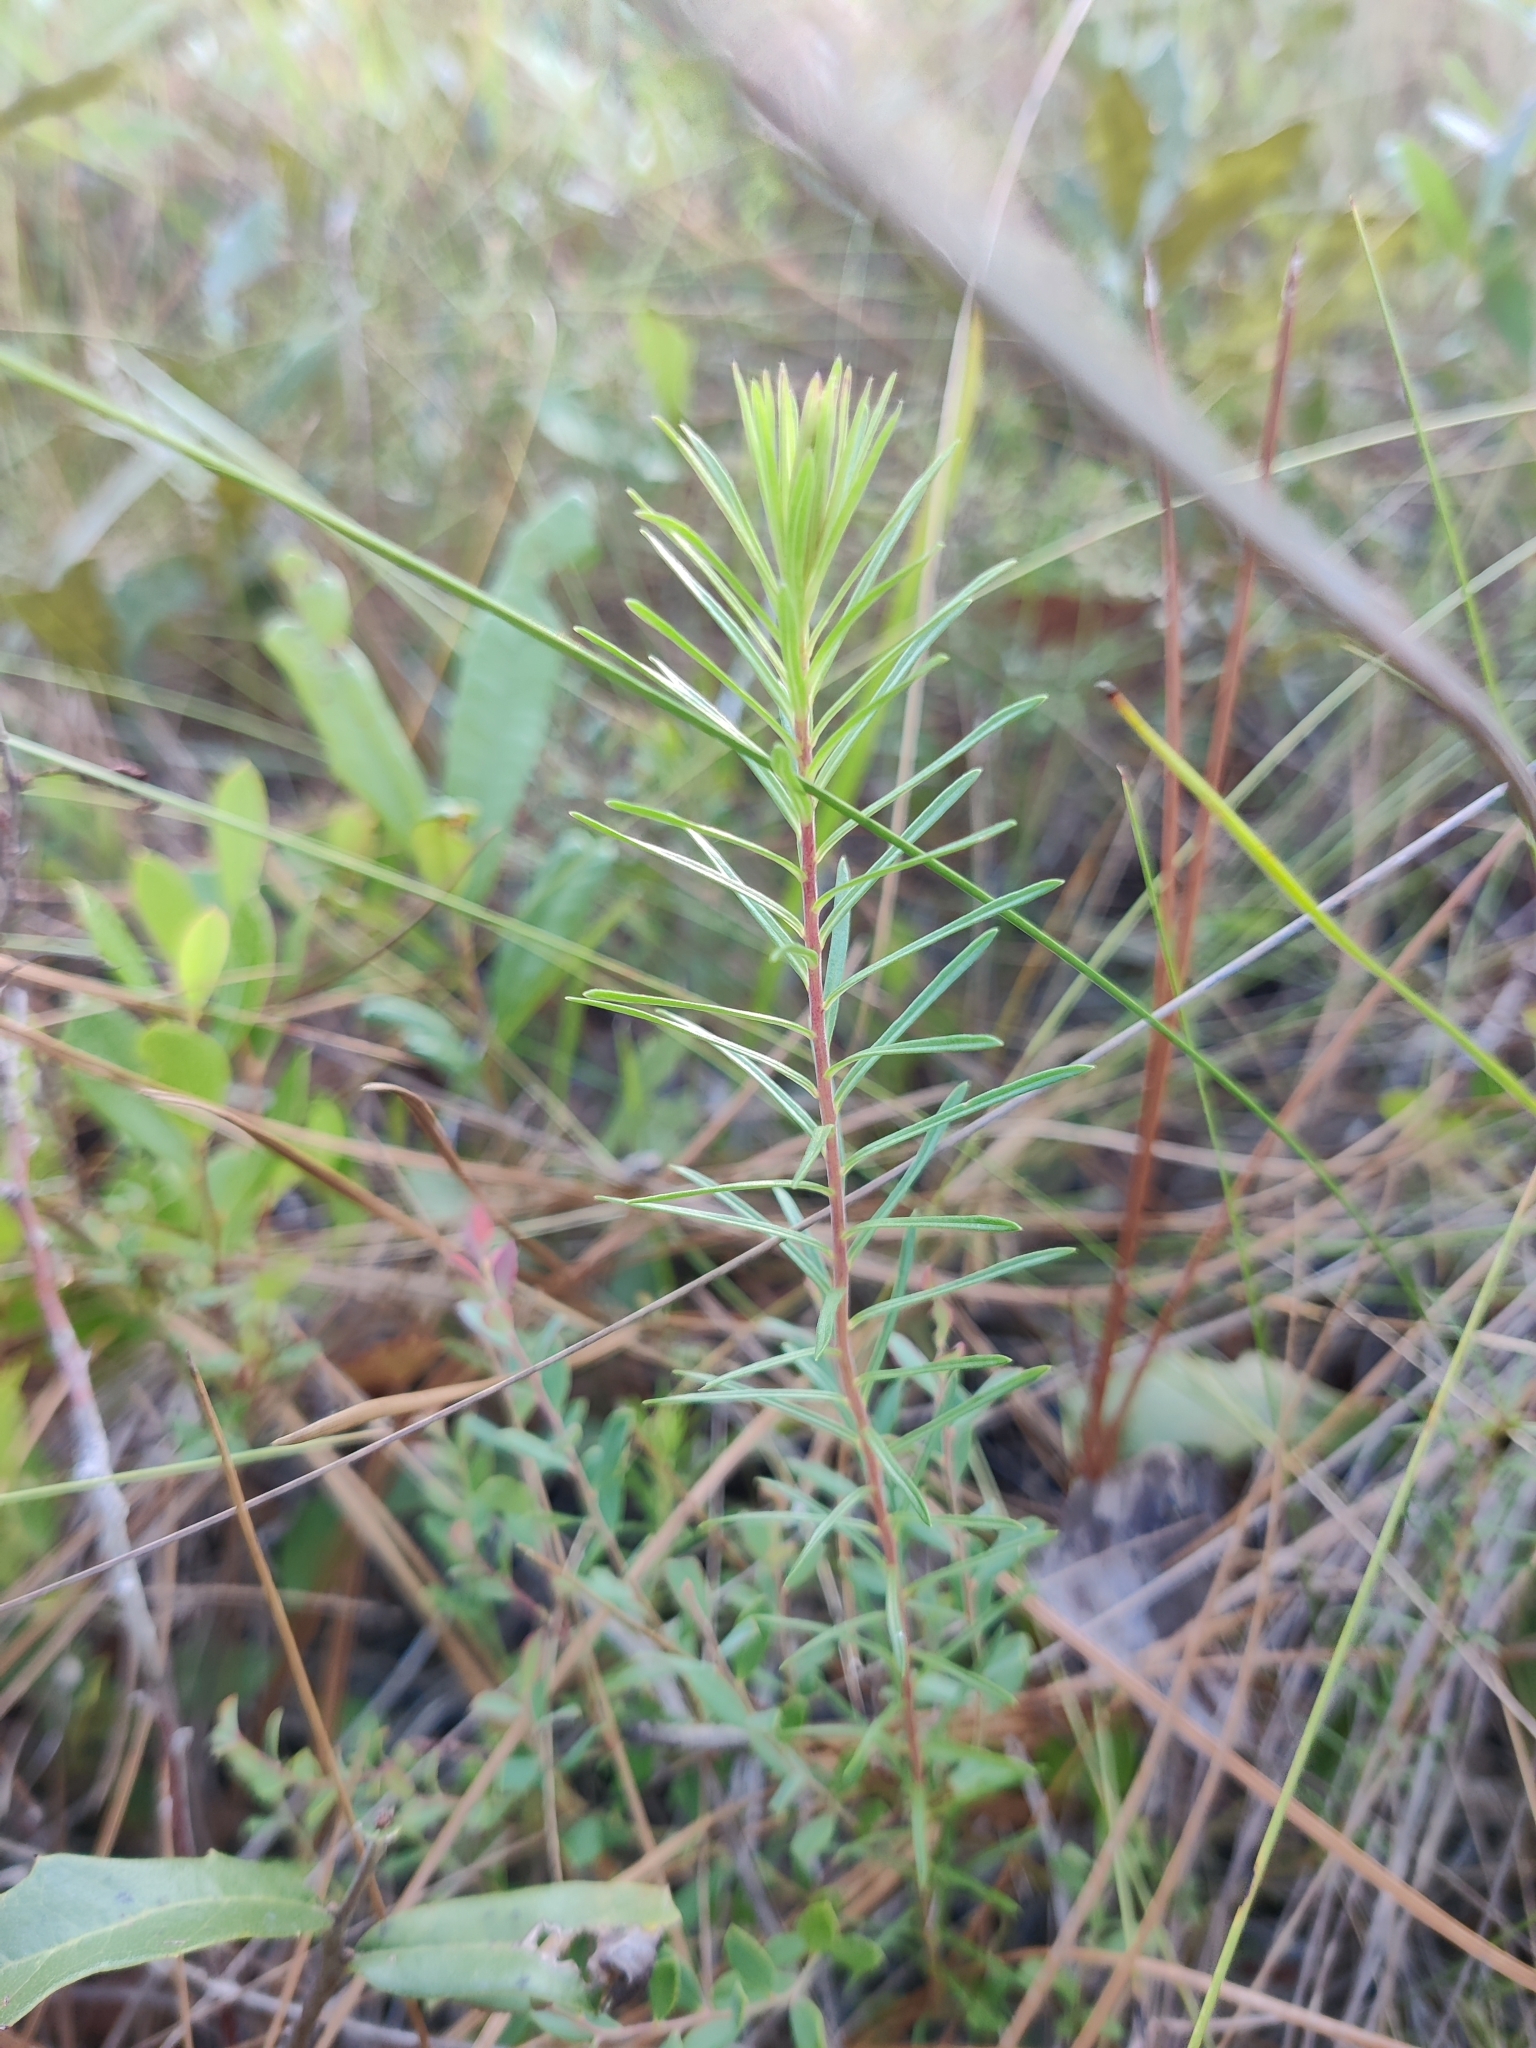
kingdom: Plantae
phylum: Tracheophyta
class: Magnoliopsida
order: Asterales
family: Asteraceae
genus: Ionactis
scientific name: Ionactis repens
